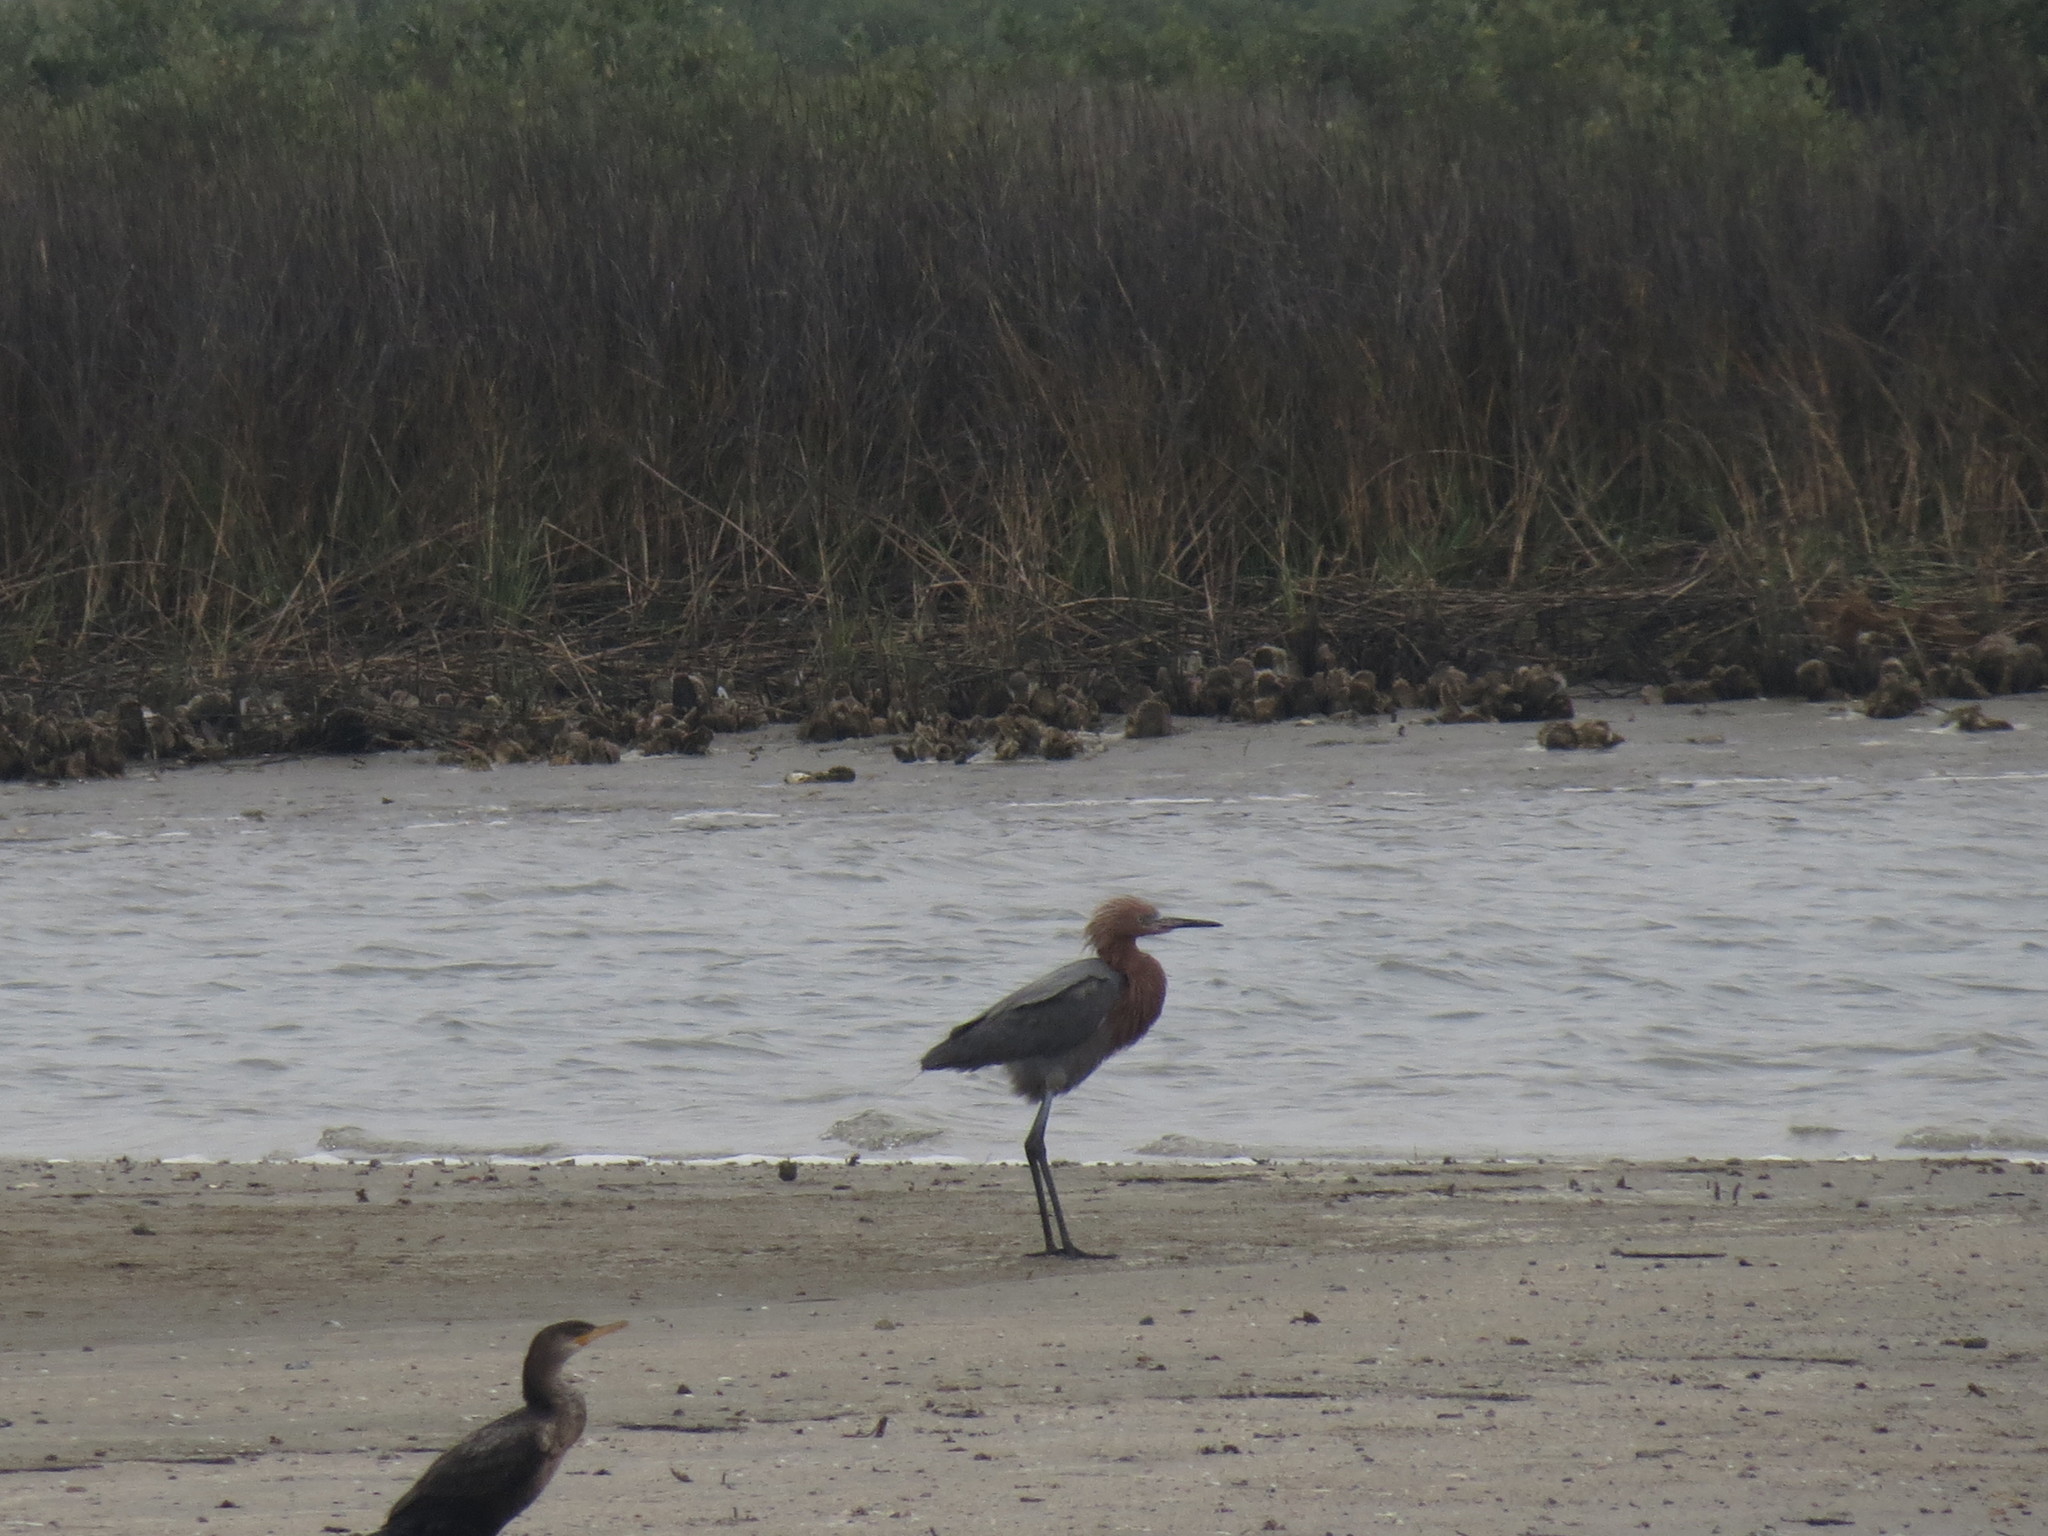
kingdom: Animalia
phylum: Chordata
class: Aves
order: Pelecaniformes
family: Ardeidae
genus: Egretta
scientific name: Egretta rufescens
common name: Reddish egret
